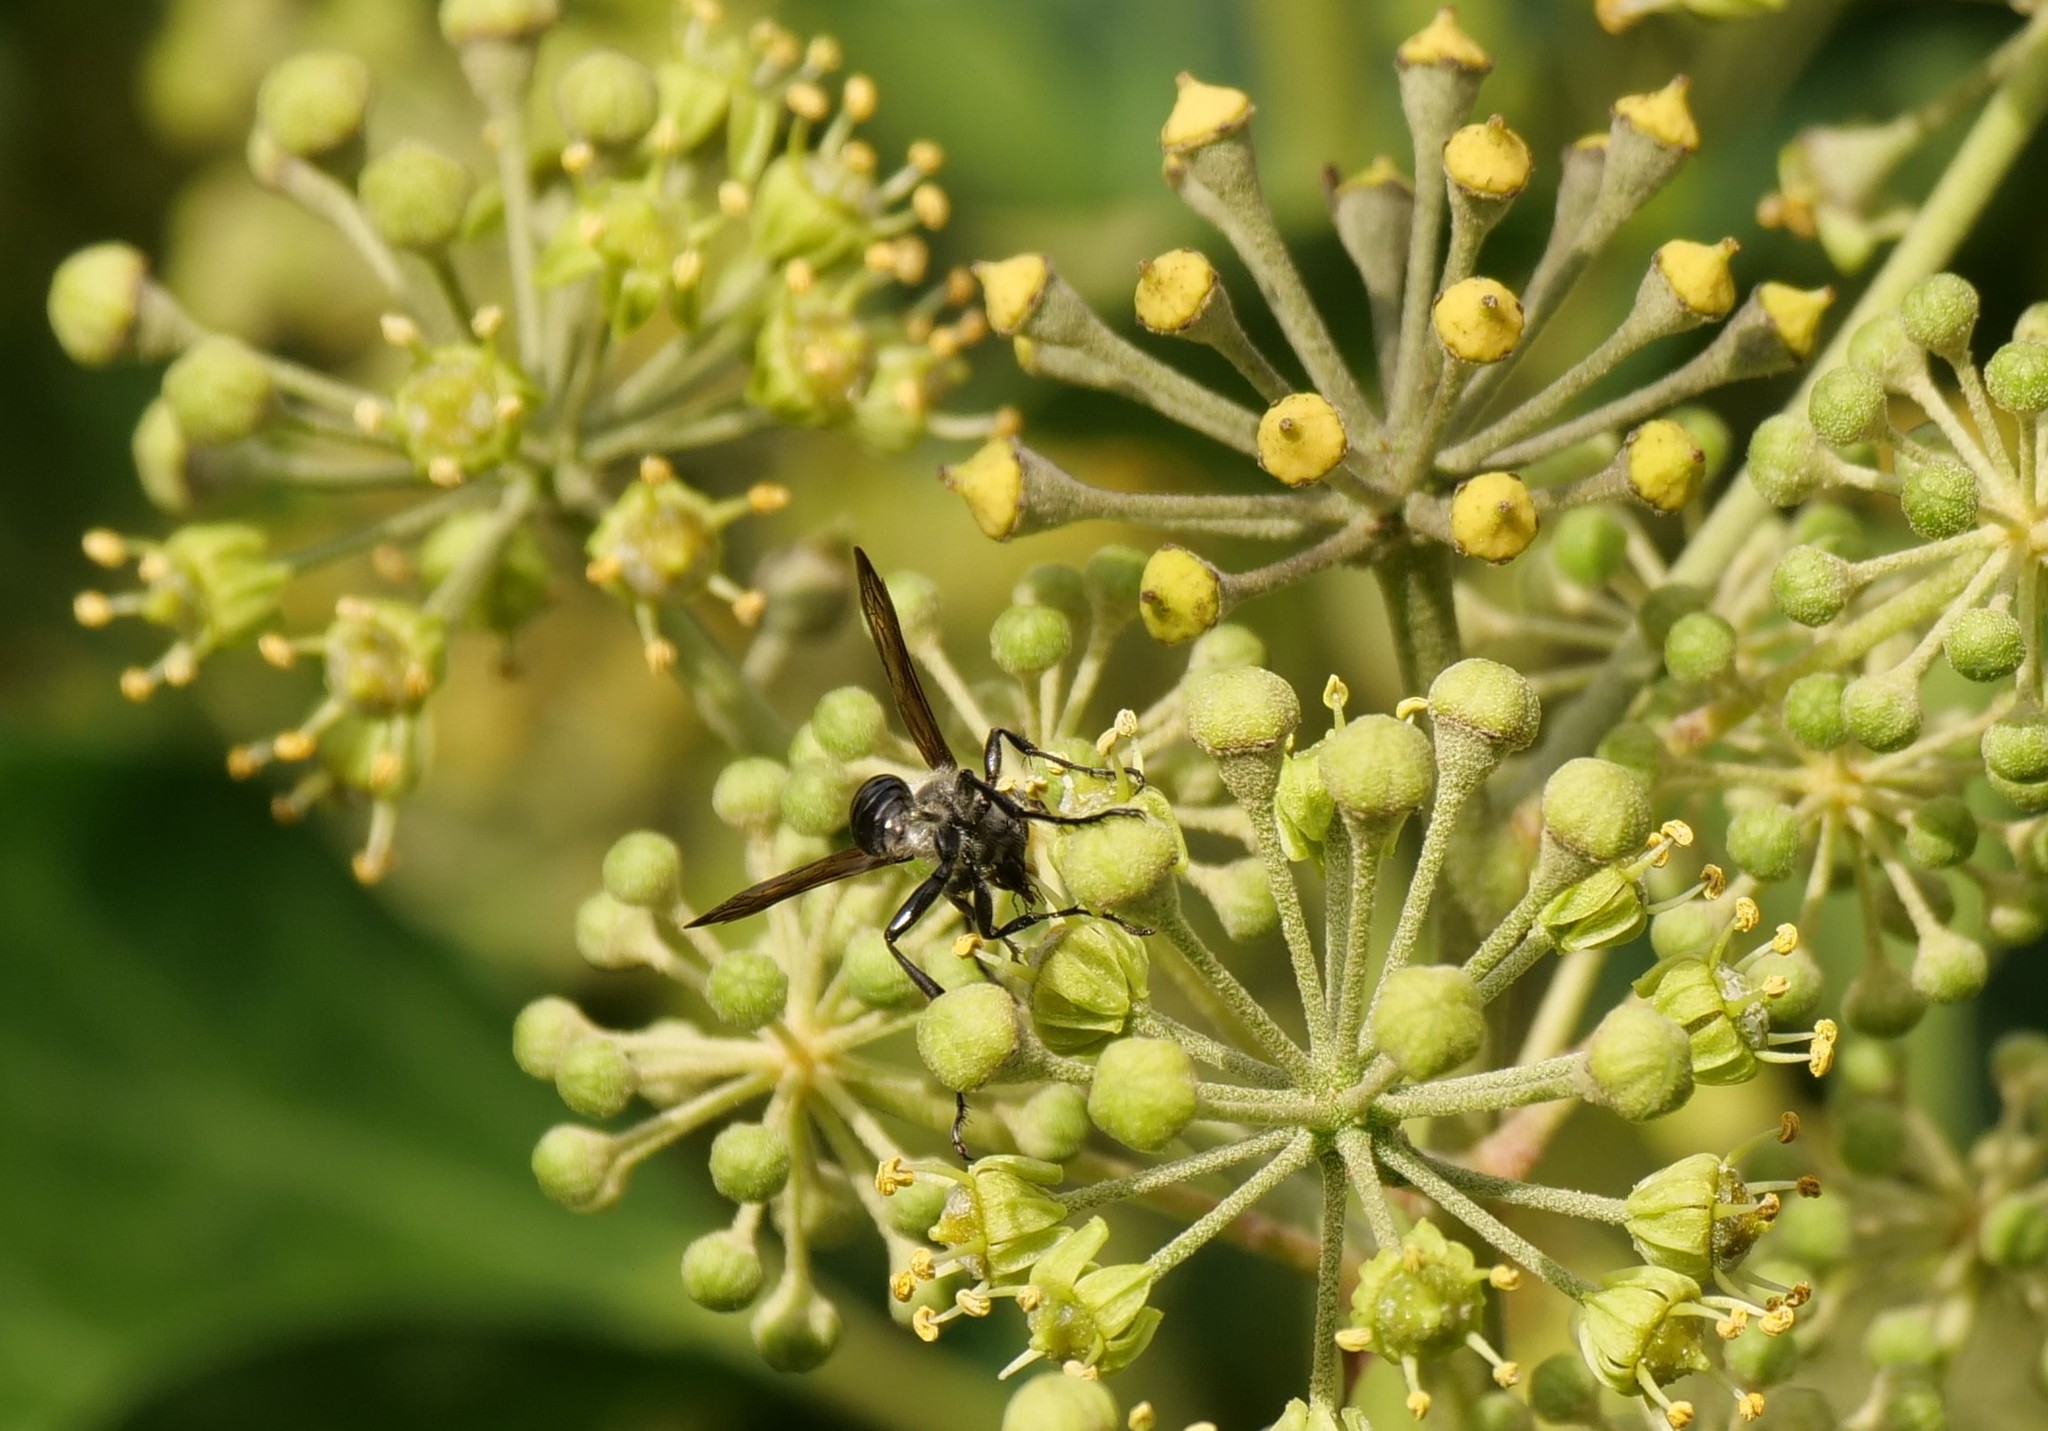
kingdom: Animalia
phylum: Arthropoda
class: Insecta
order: Hymenoptera
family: Sphecidae
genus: Isodontia
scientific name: Isodontia mexicana
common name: Mud dauber
